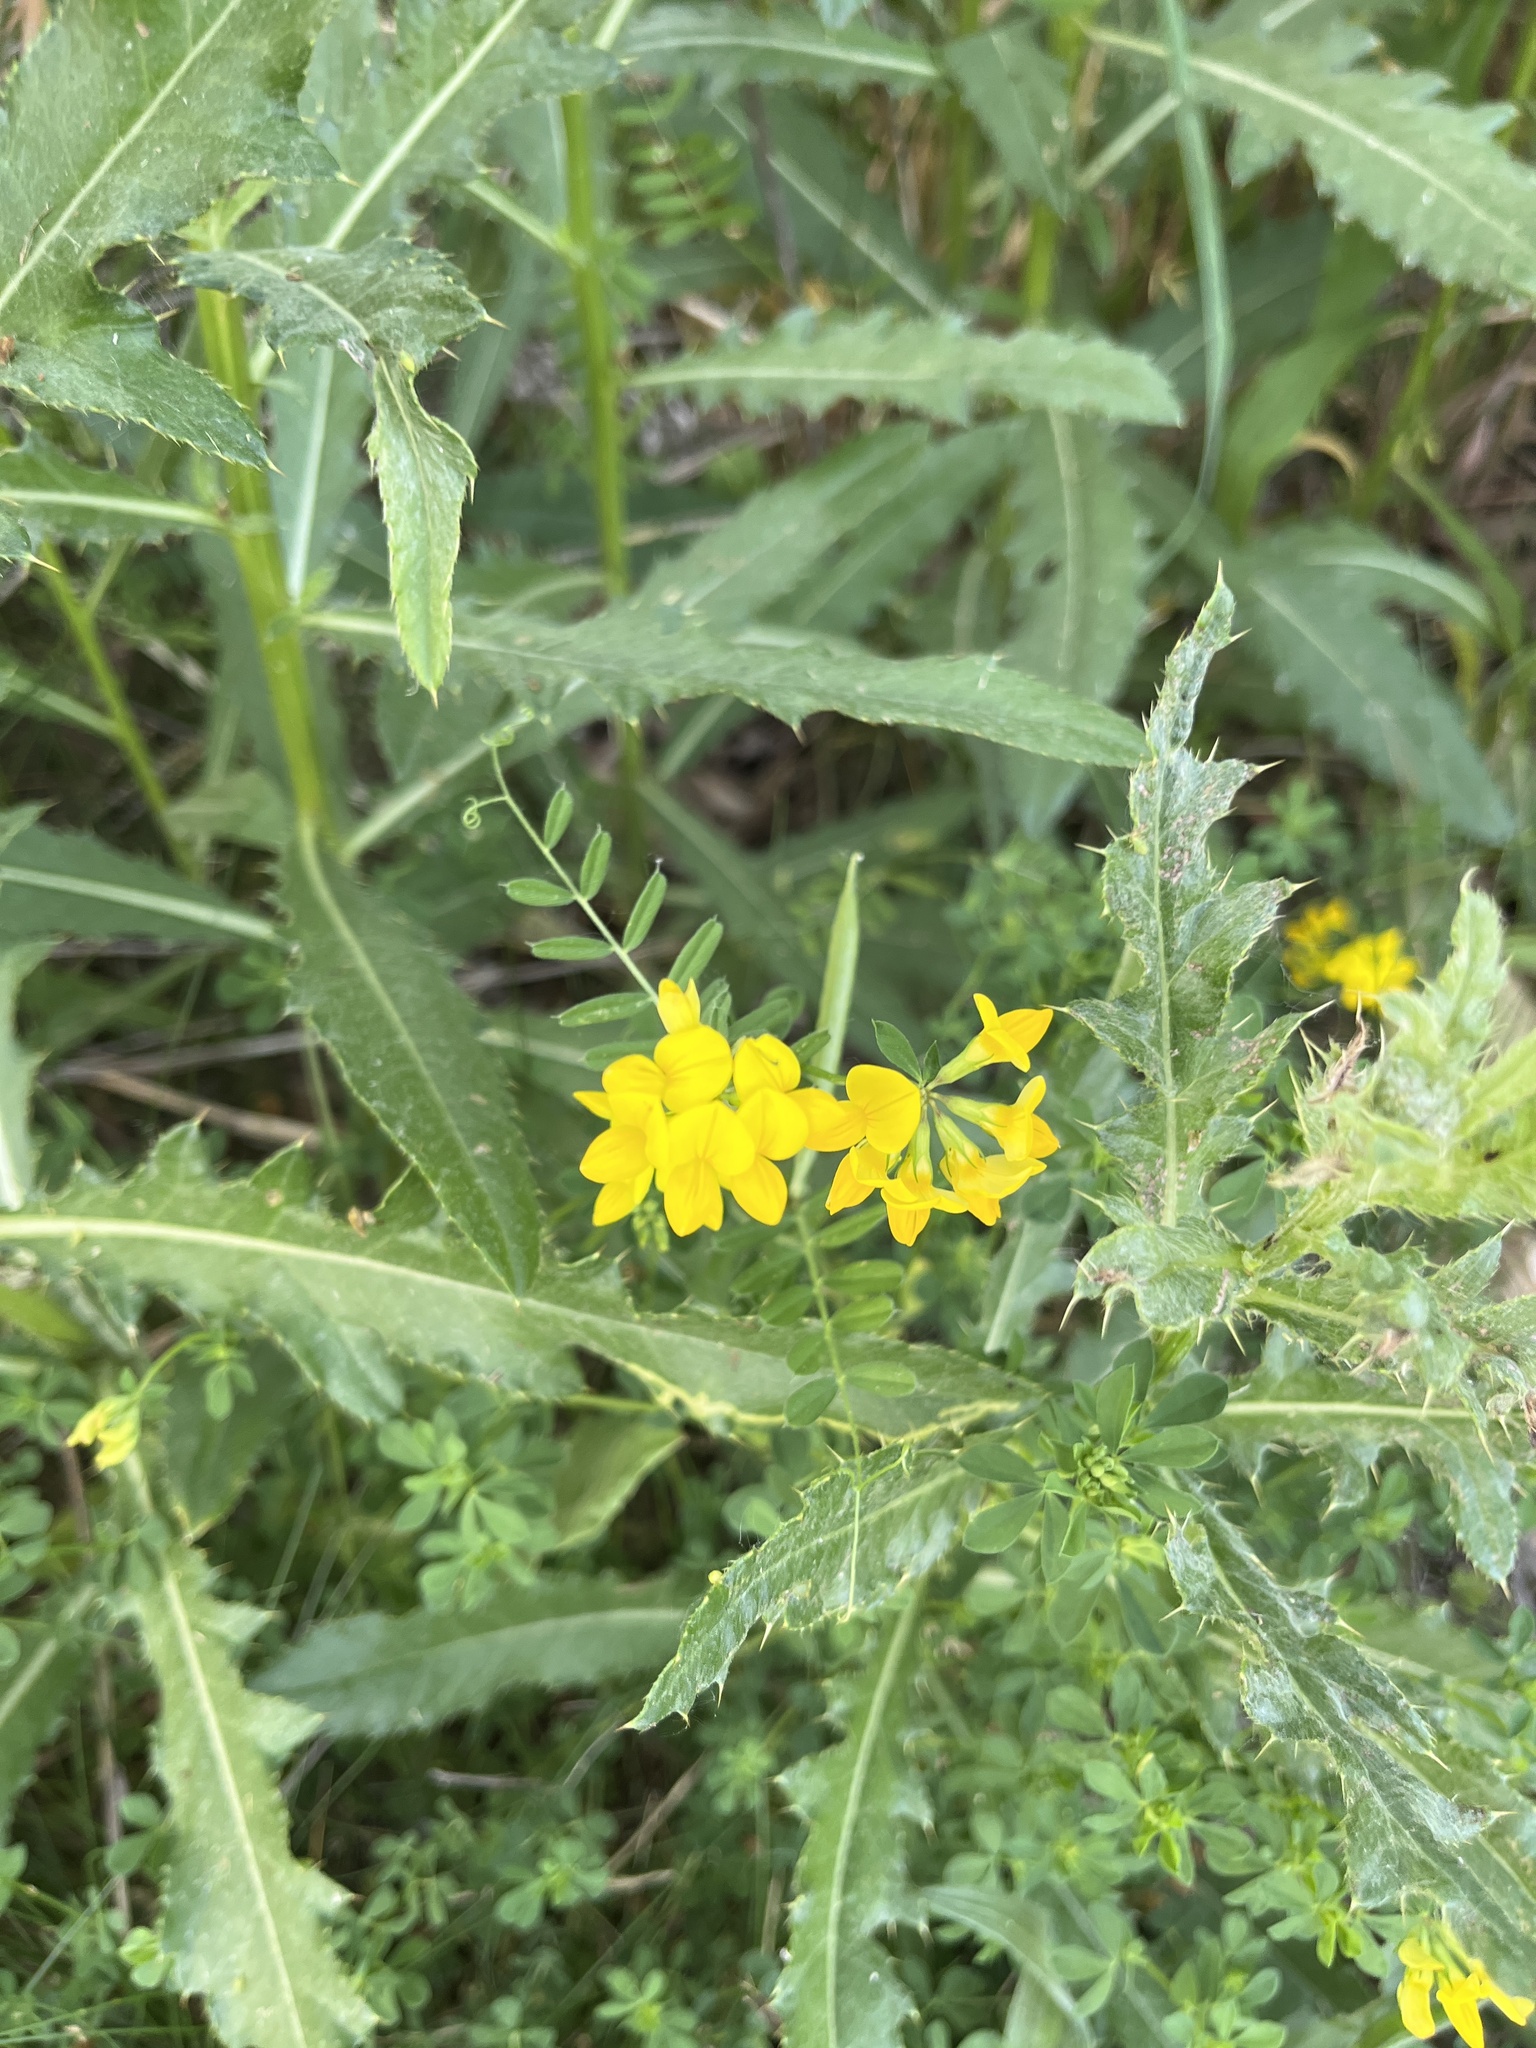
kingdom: Plantae
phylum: Tracheophyta
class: Magnoliopsida
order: Fabales
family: Fabaceae
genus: Lotus
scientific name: Lotus corniculatus
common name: Common bird's-foot-trefoil
